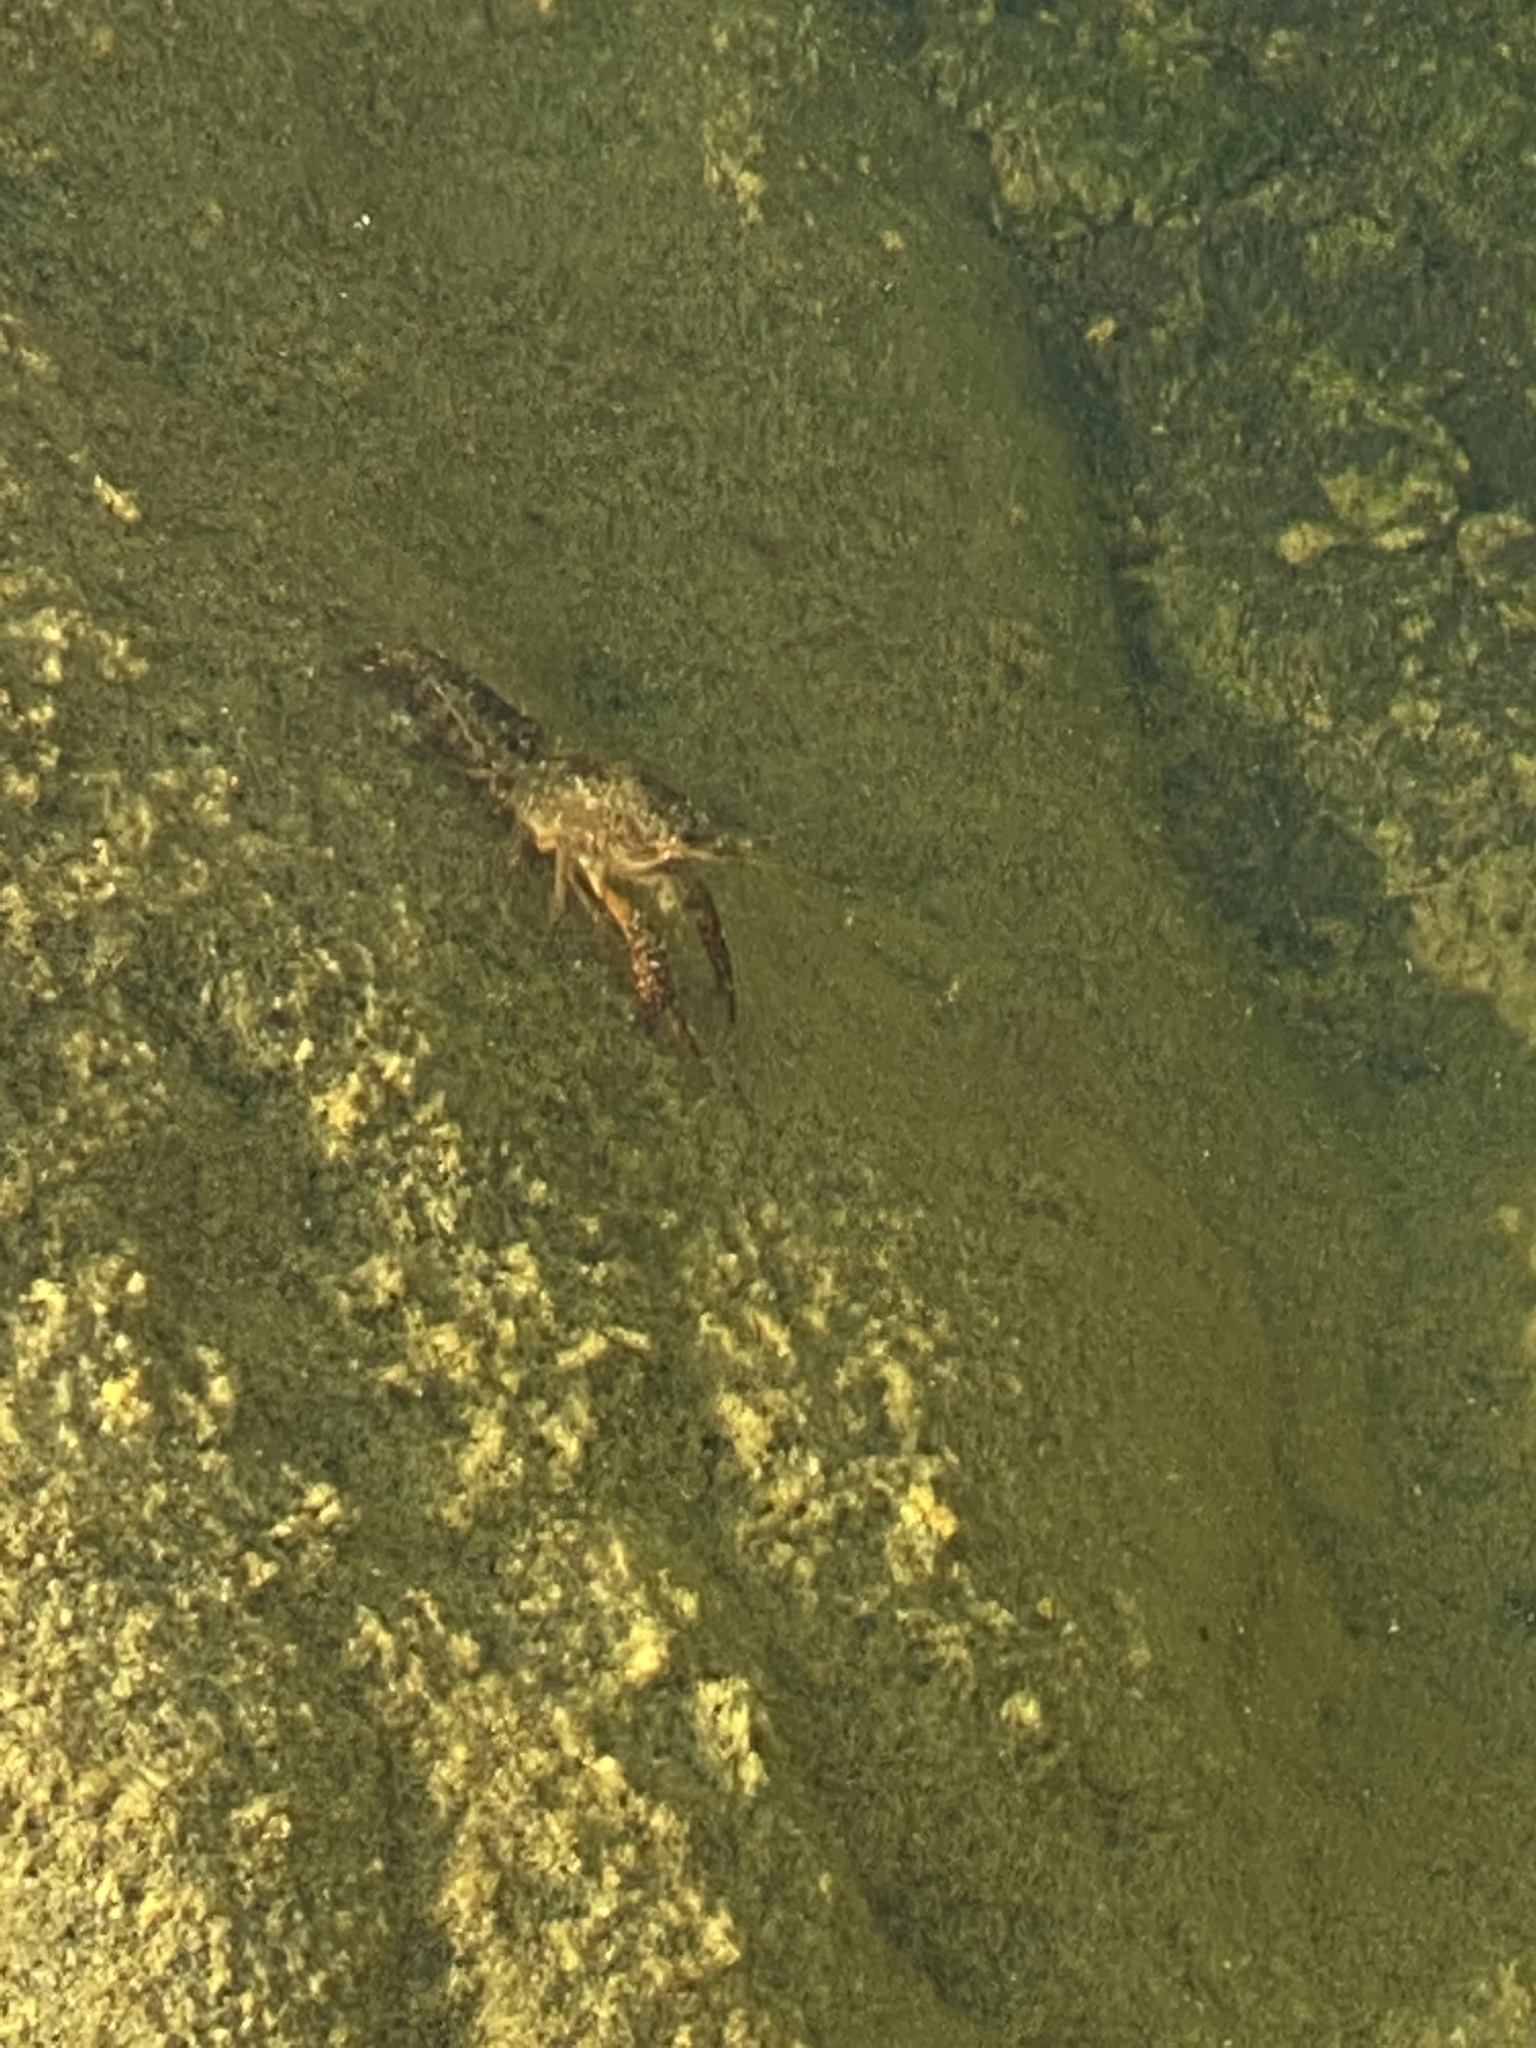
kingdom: Animalia
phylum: Arthropoda
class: Malacostraca
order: Decapoda
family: Cambaridae
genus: Procambarus
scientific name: Procambarus clarkii
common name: Red swamp crayfish
